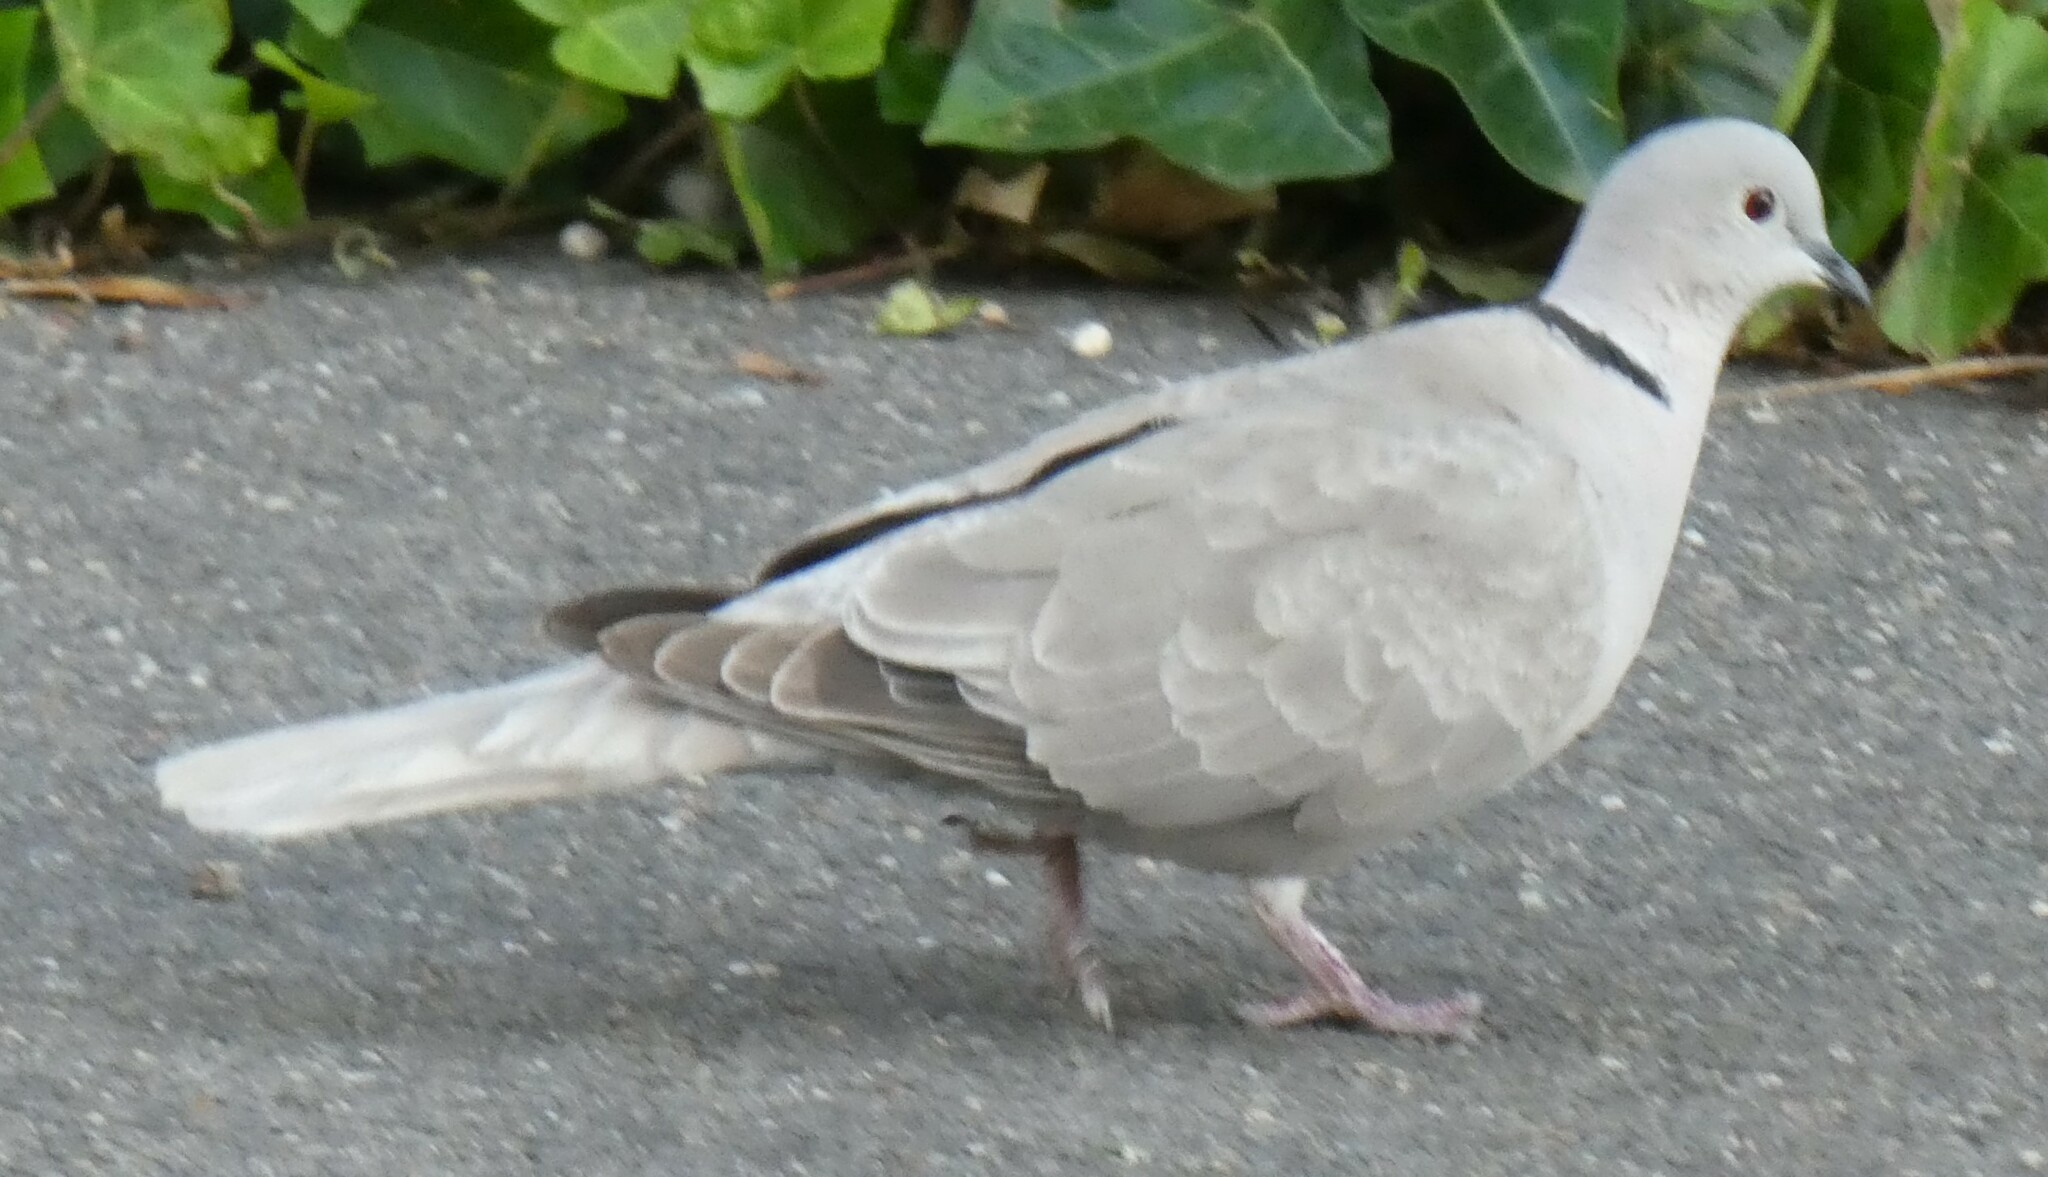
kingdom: Animalia
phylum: Chordata
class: Aves
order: Columbiformes
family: Columbidae
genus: Streptopelia
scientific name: Streptopelia decaocto
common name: Eurasian collared dove
